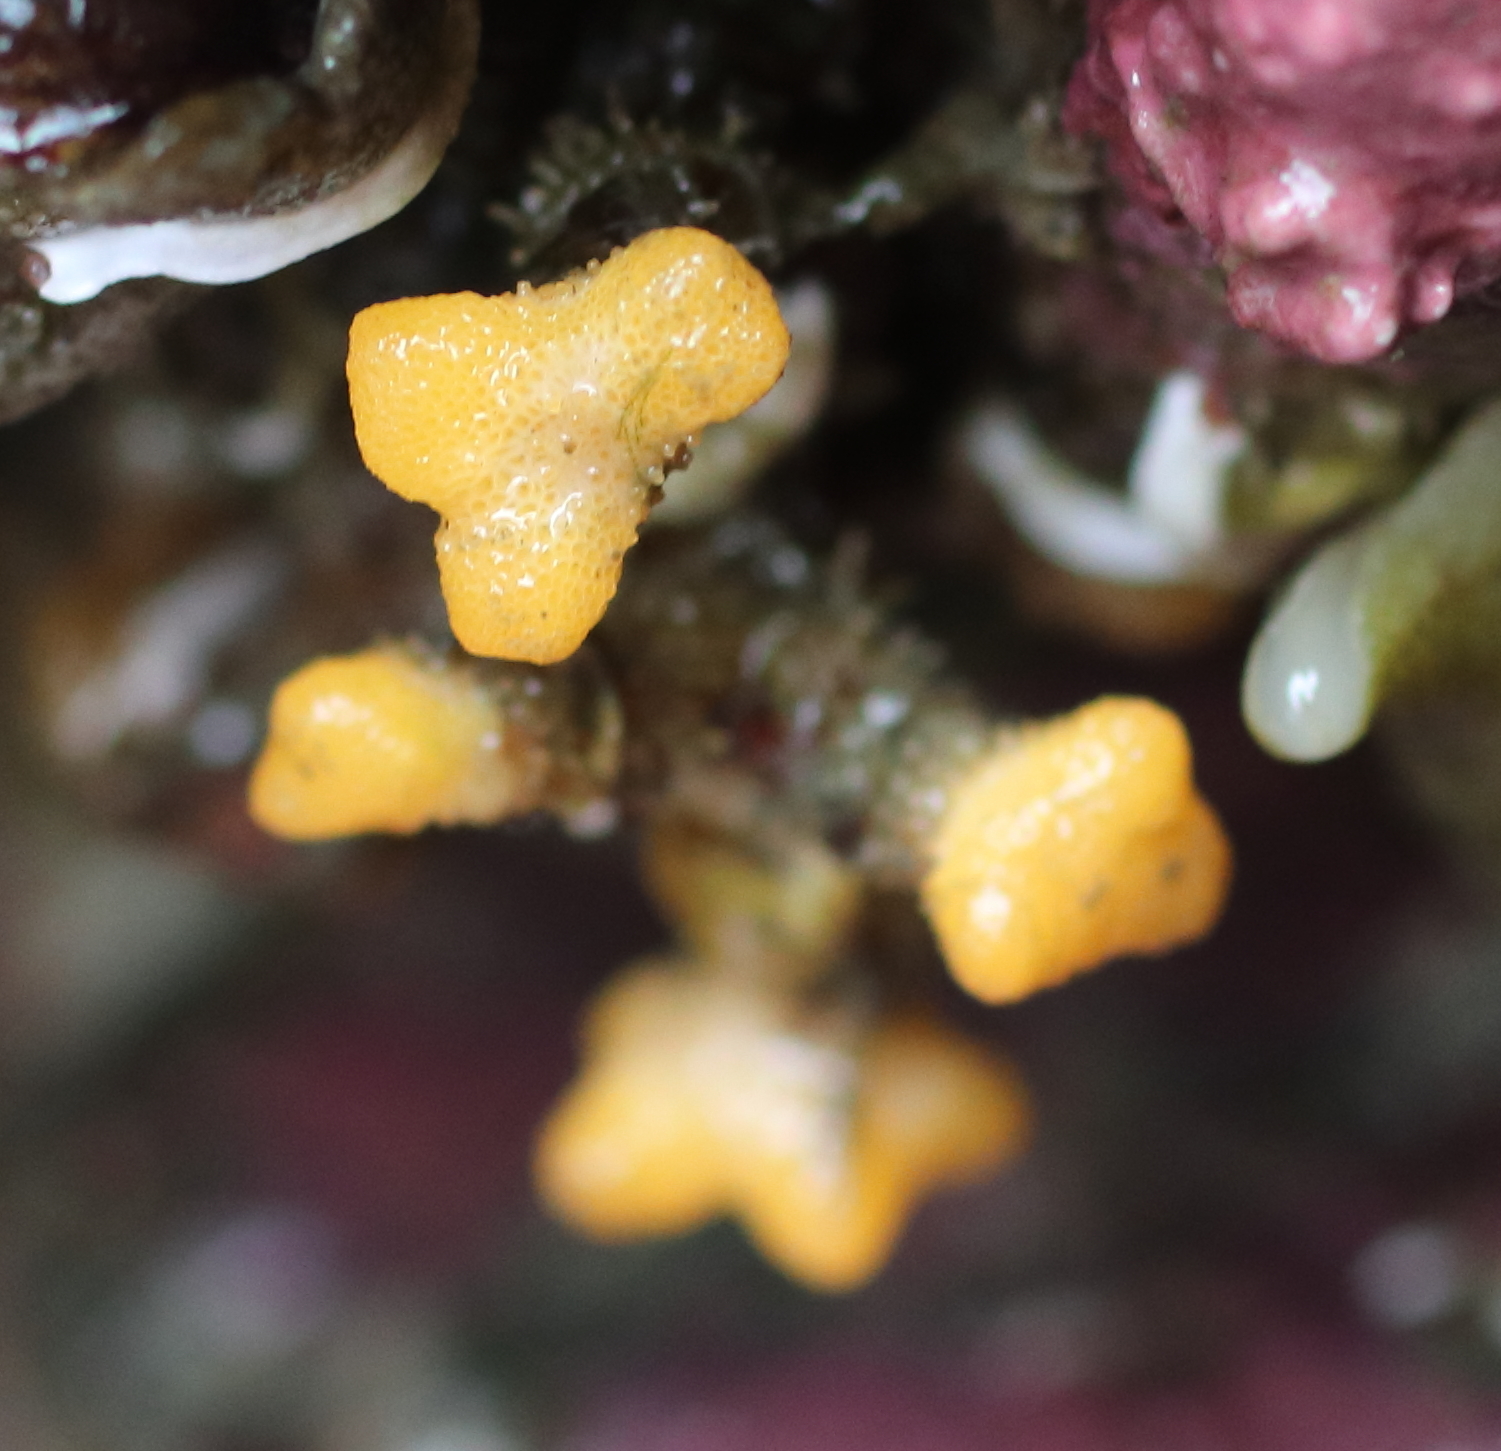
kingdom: Animalia
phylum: Bryozoa
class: Stenolaemata
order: Cyclostomatida
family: Heteroporidae
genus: Heteropora
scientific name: Heteropora pacifica
